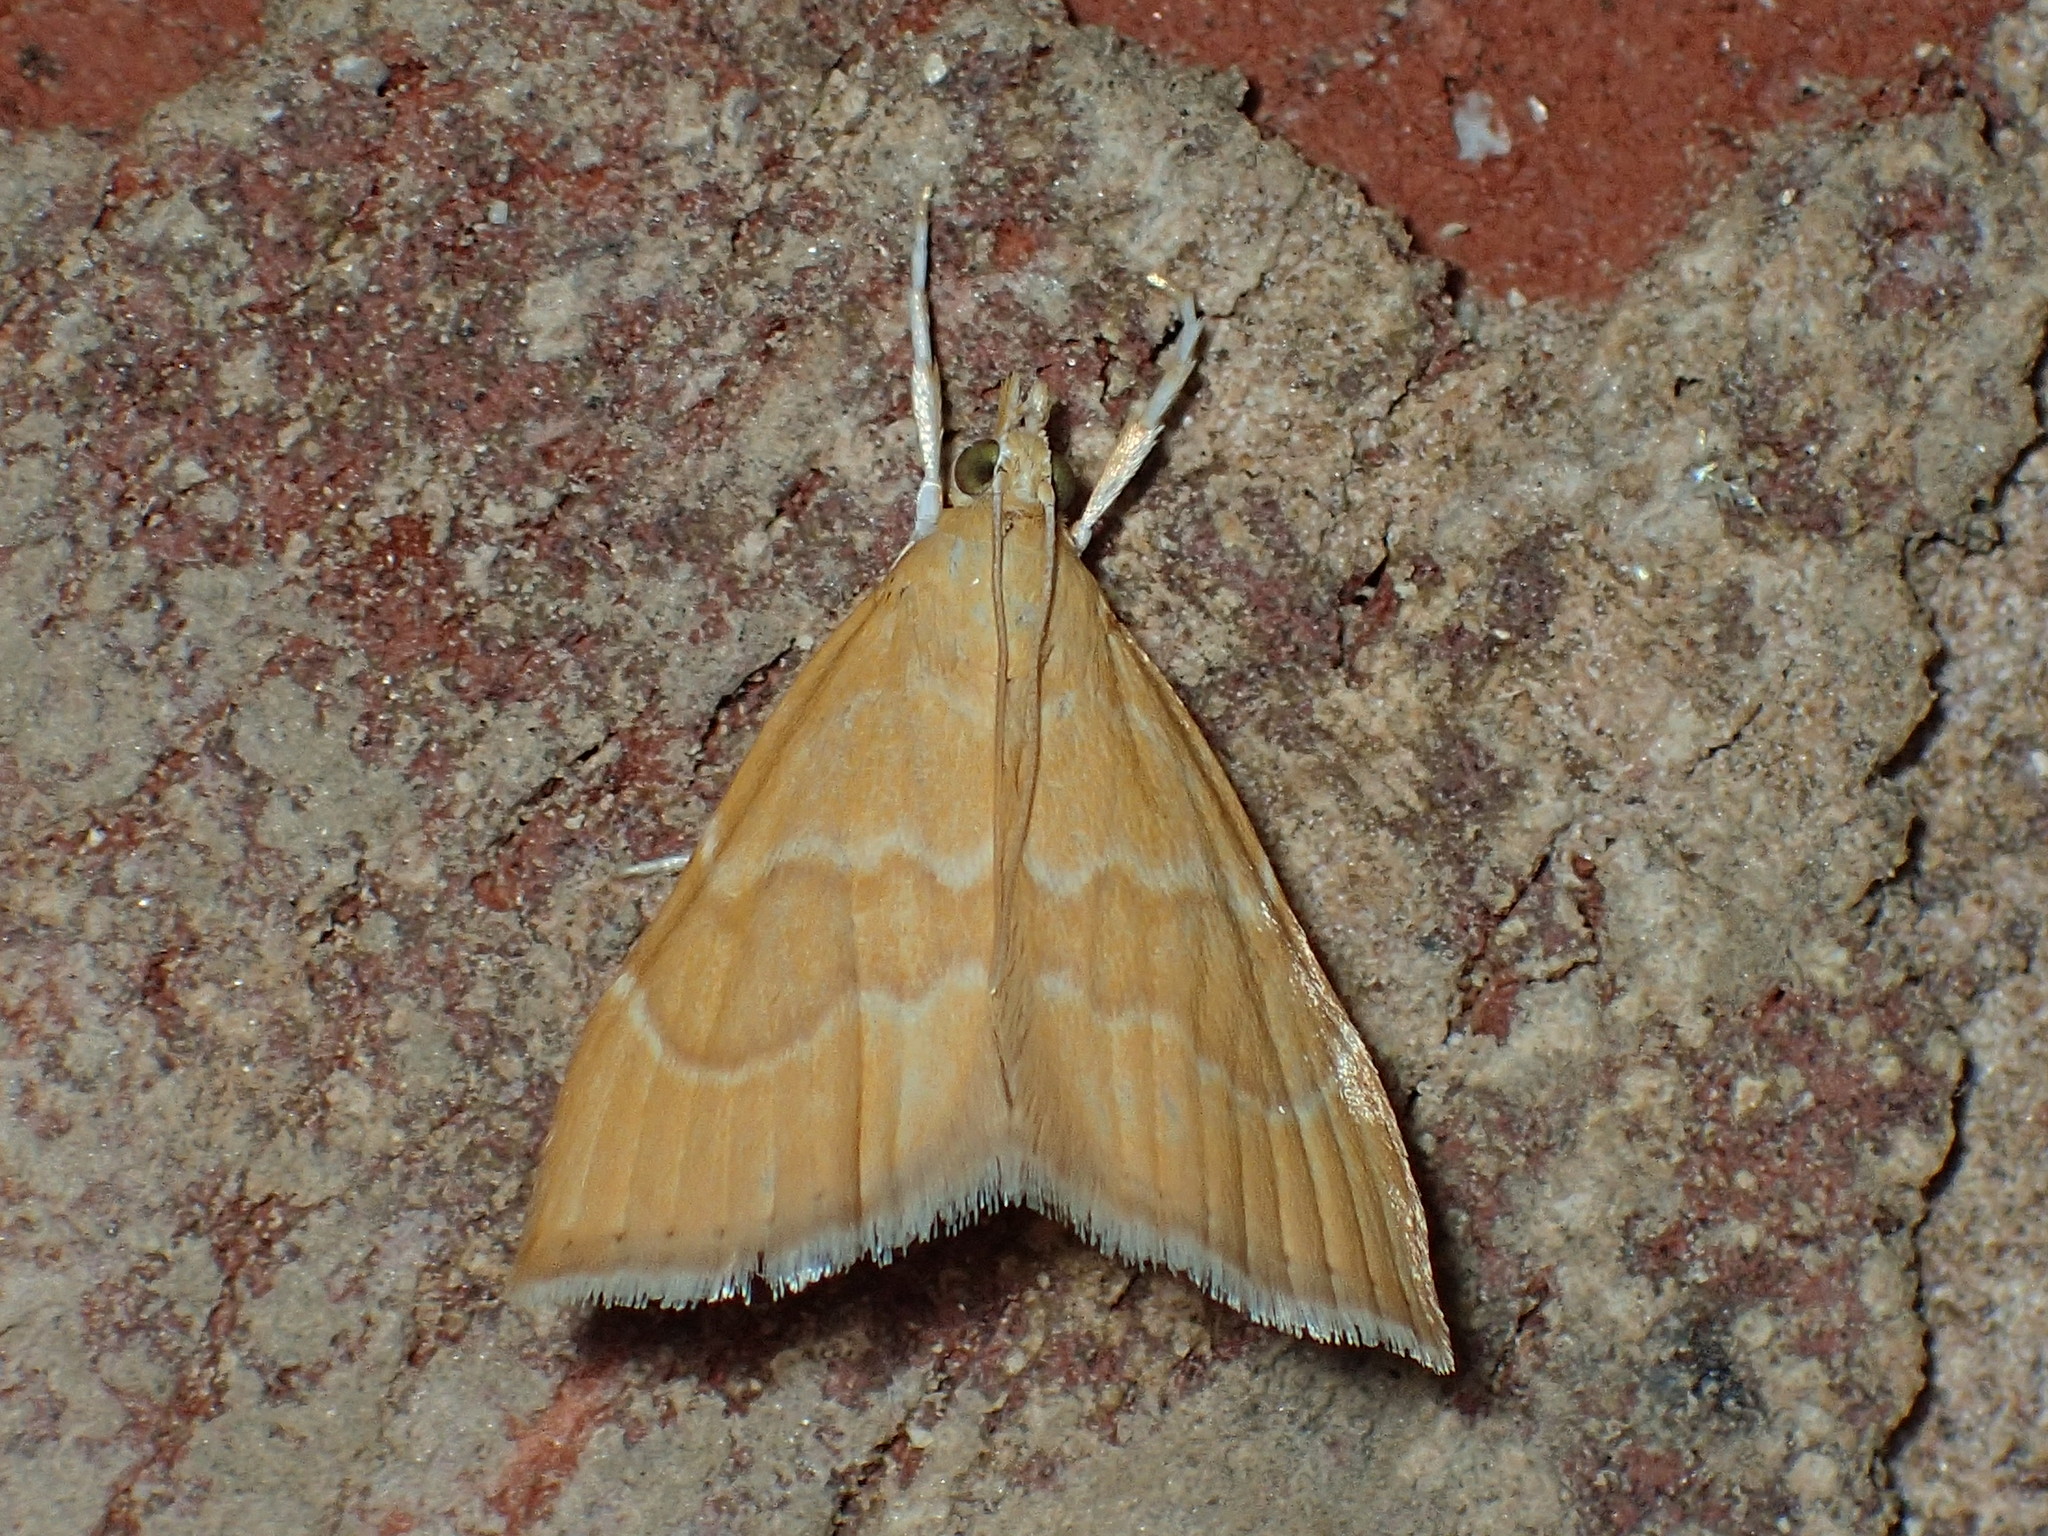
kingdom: Animalia
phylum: Arthropoda
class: Insecta
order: Lepidoptera
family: Crambidae
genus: Glaphyria
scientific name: Glaphyria invisalis
